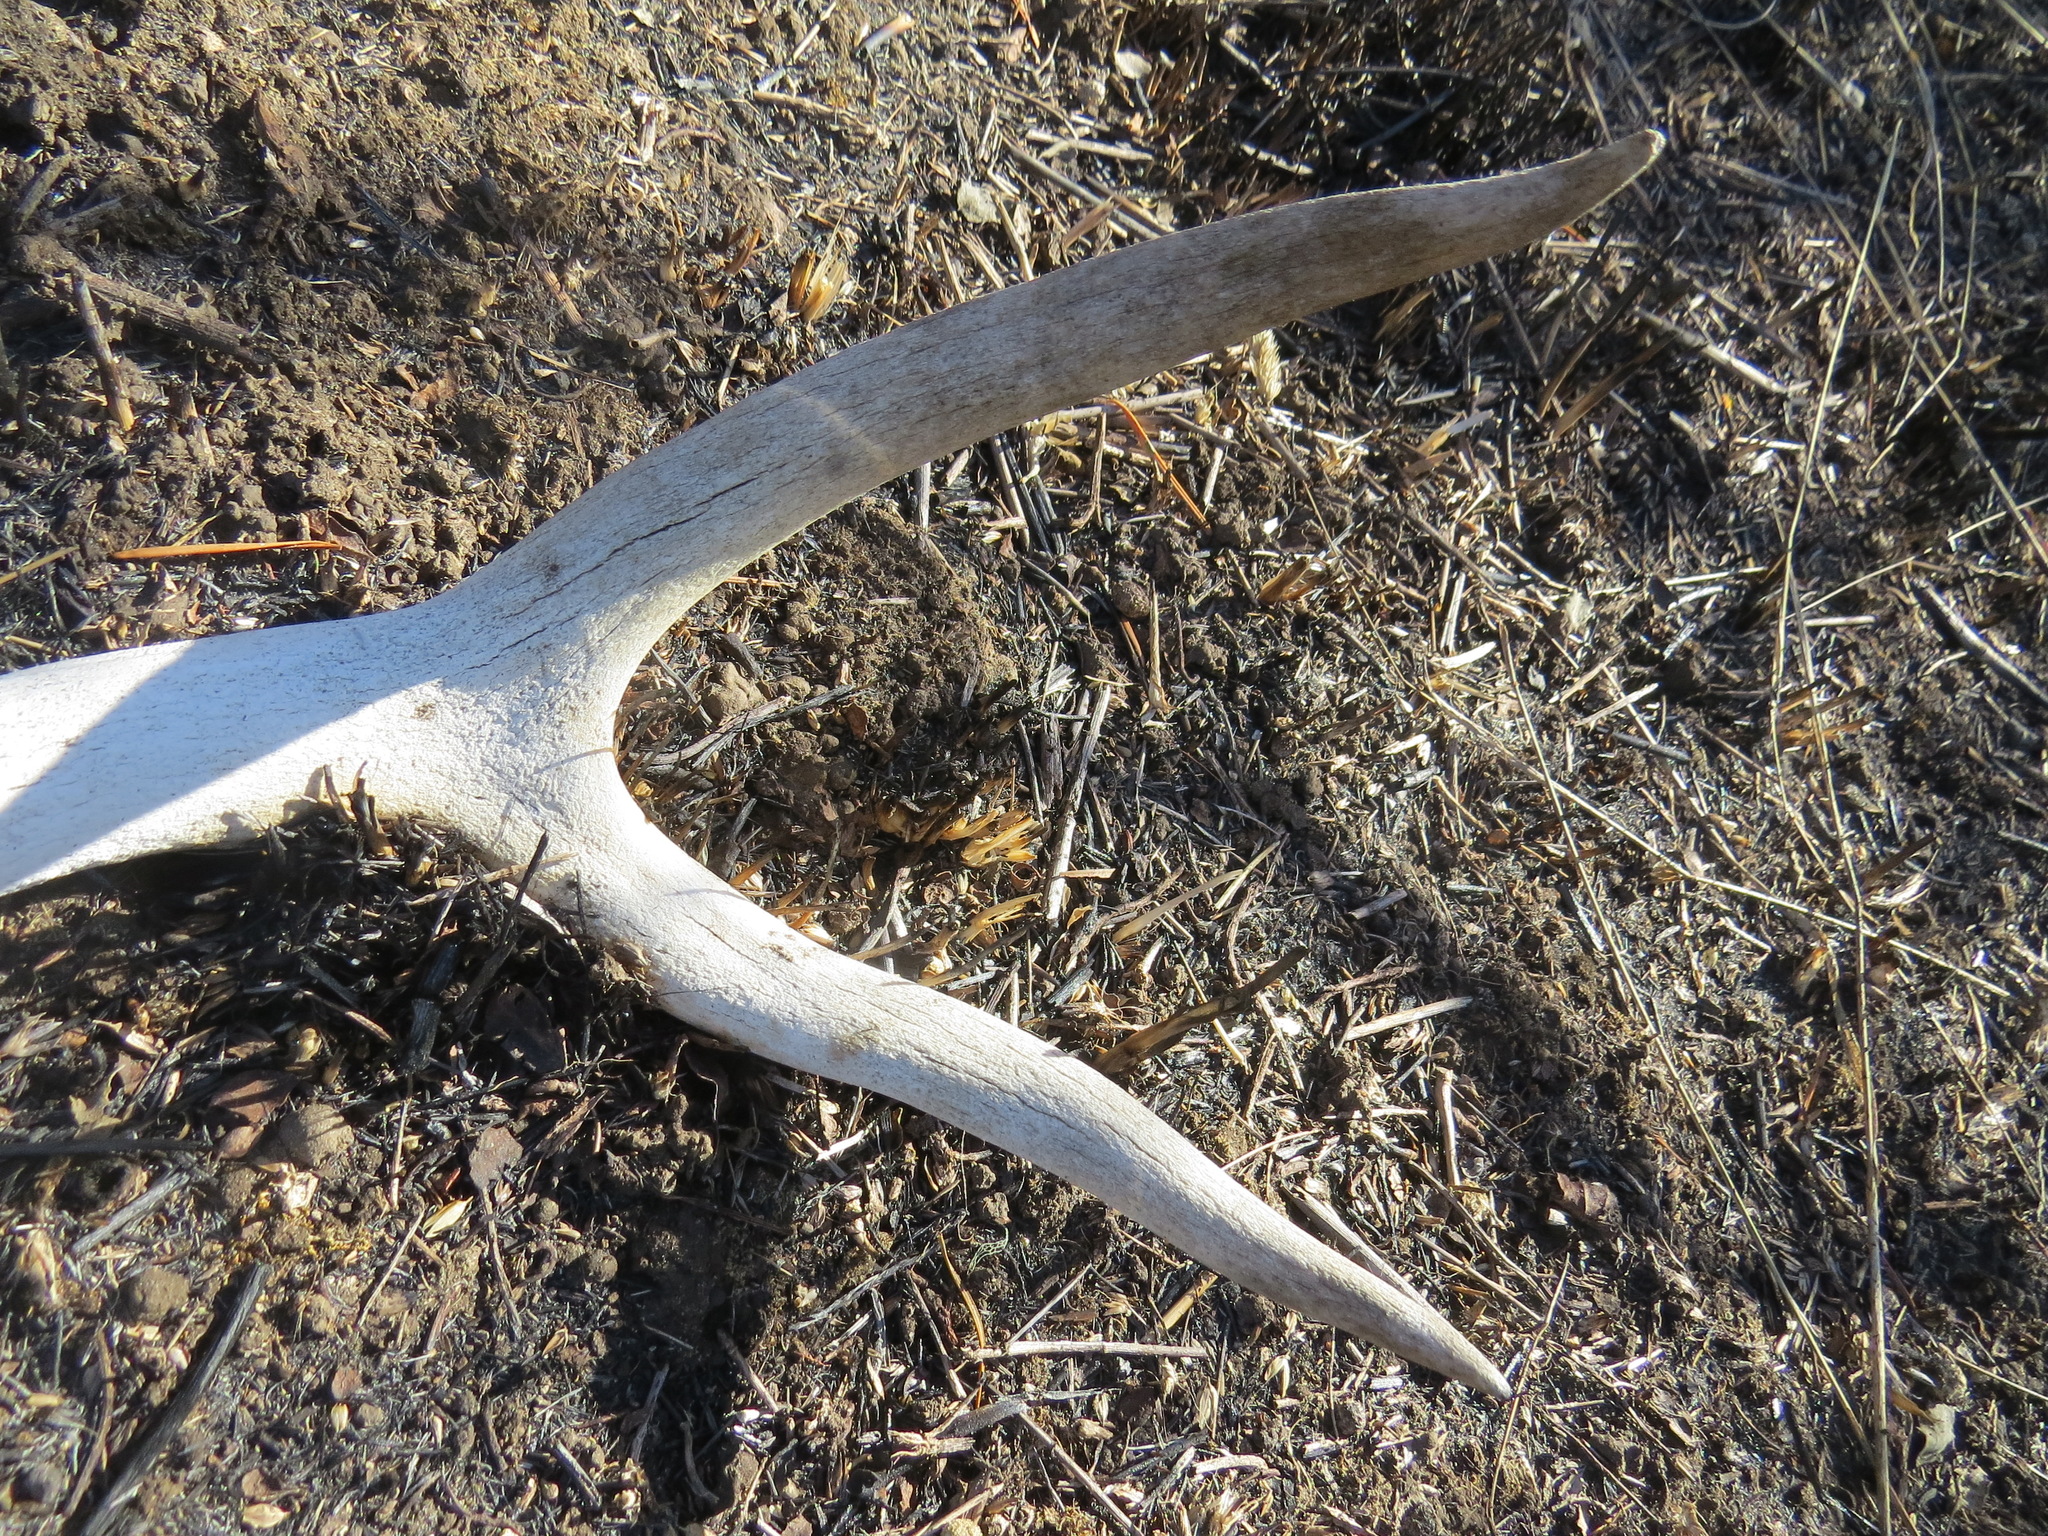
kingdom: Animalia
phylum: Chordata
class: Mammalia
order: Artiodactyla
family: Cervidae
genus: Odocoileus
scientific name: Odocoileus hemionus
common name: Mule deer
